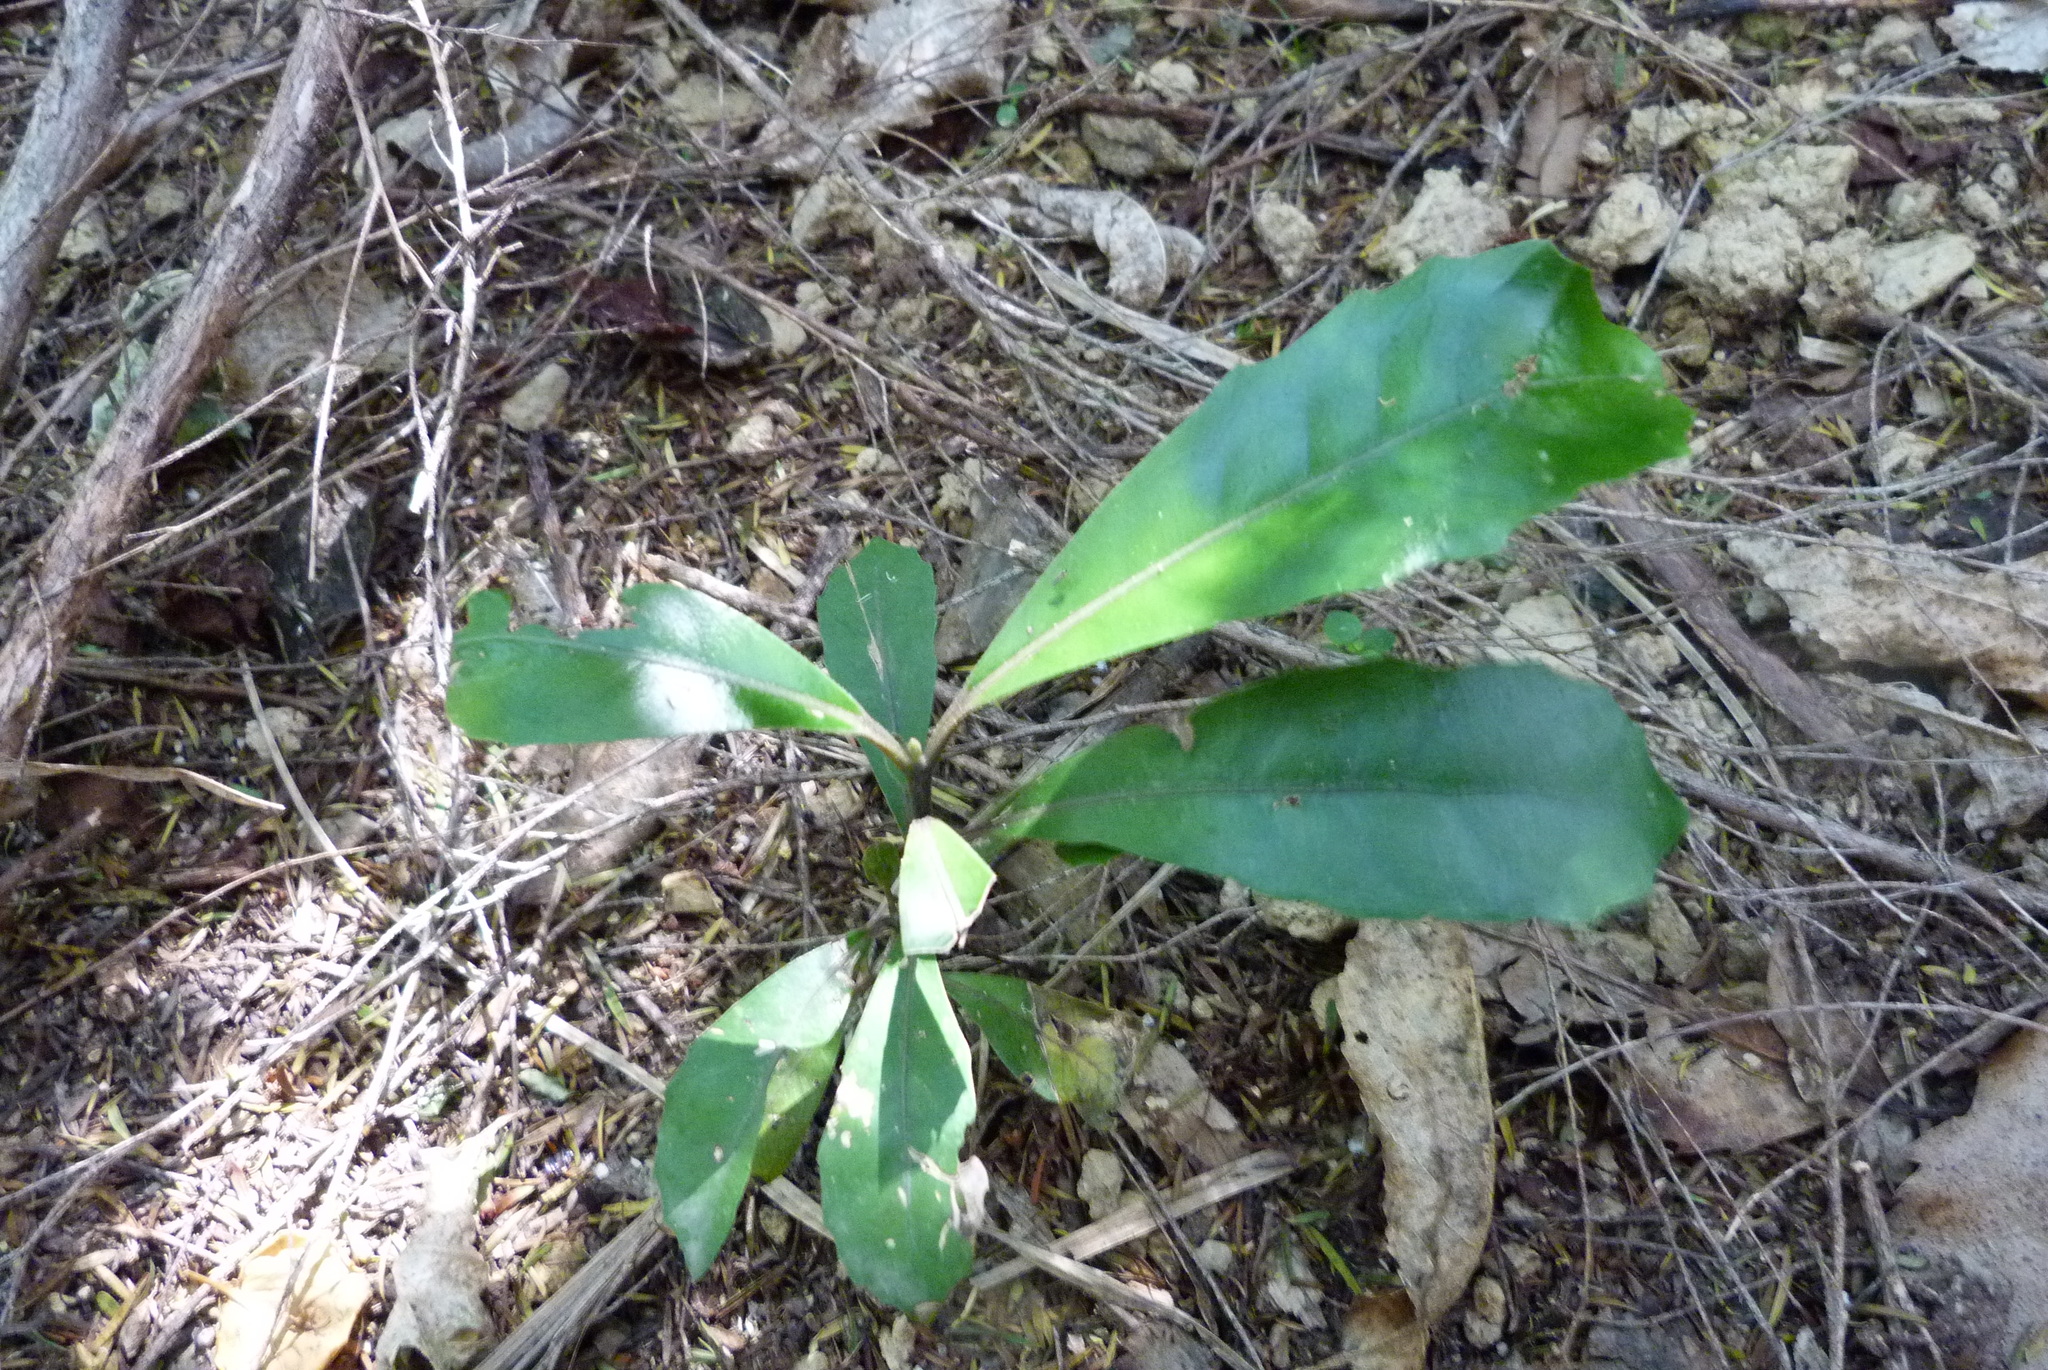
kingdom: Plantae
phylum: Tracheophyta
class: Magnoliopsida
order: Laurales
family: Monimiaceae
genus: Hedycarya
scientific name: Hedycarya arborea
